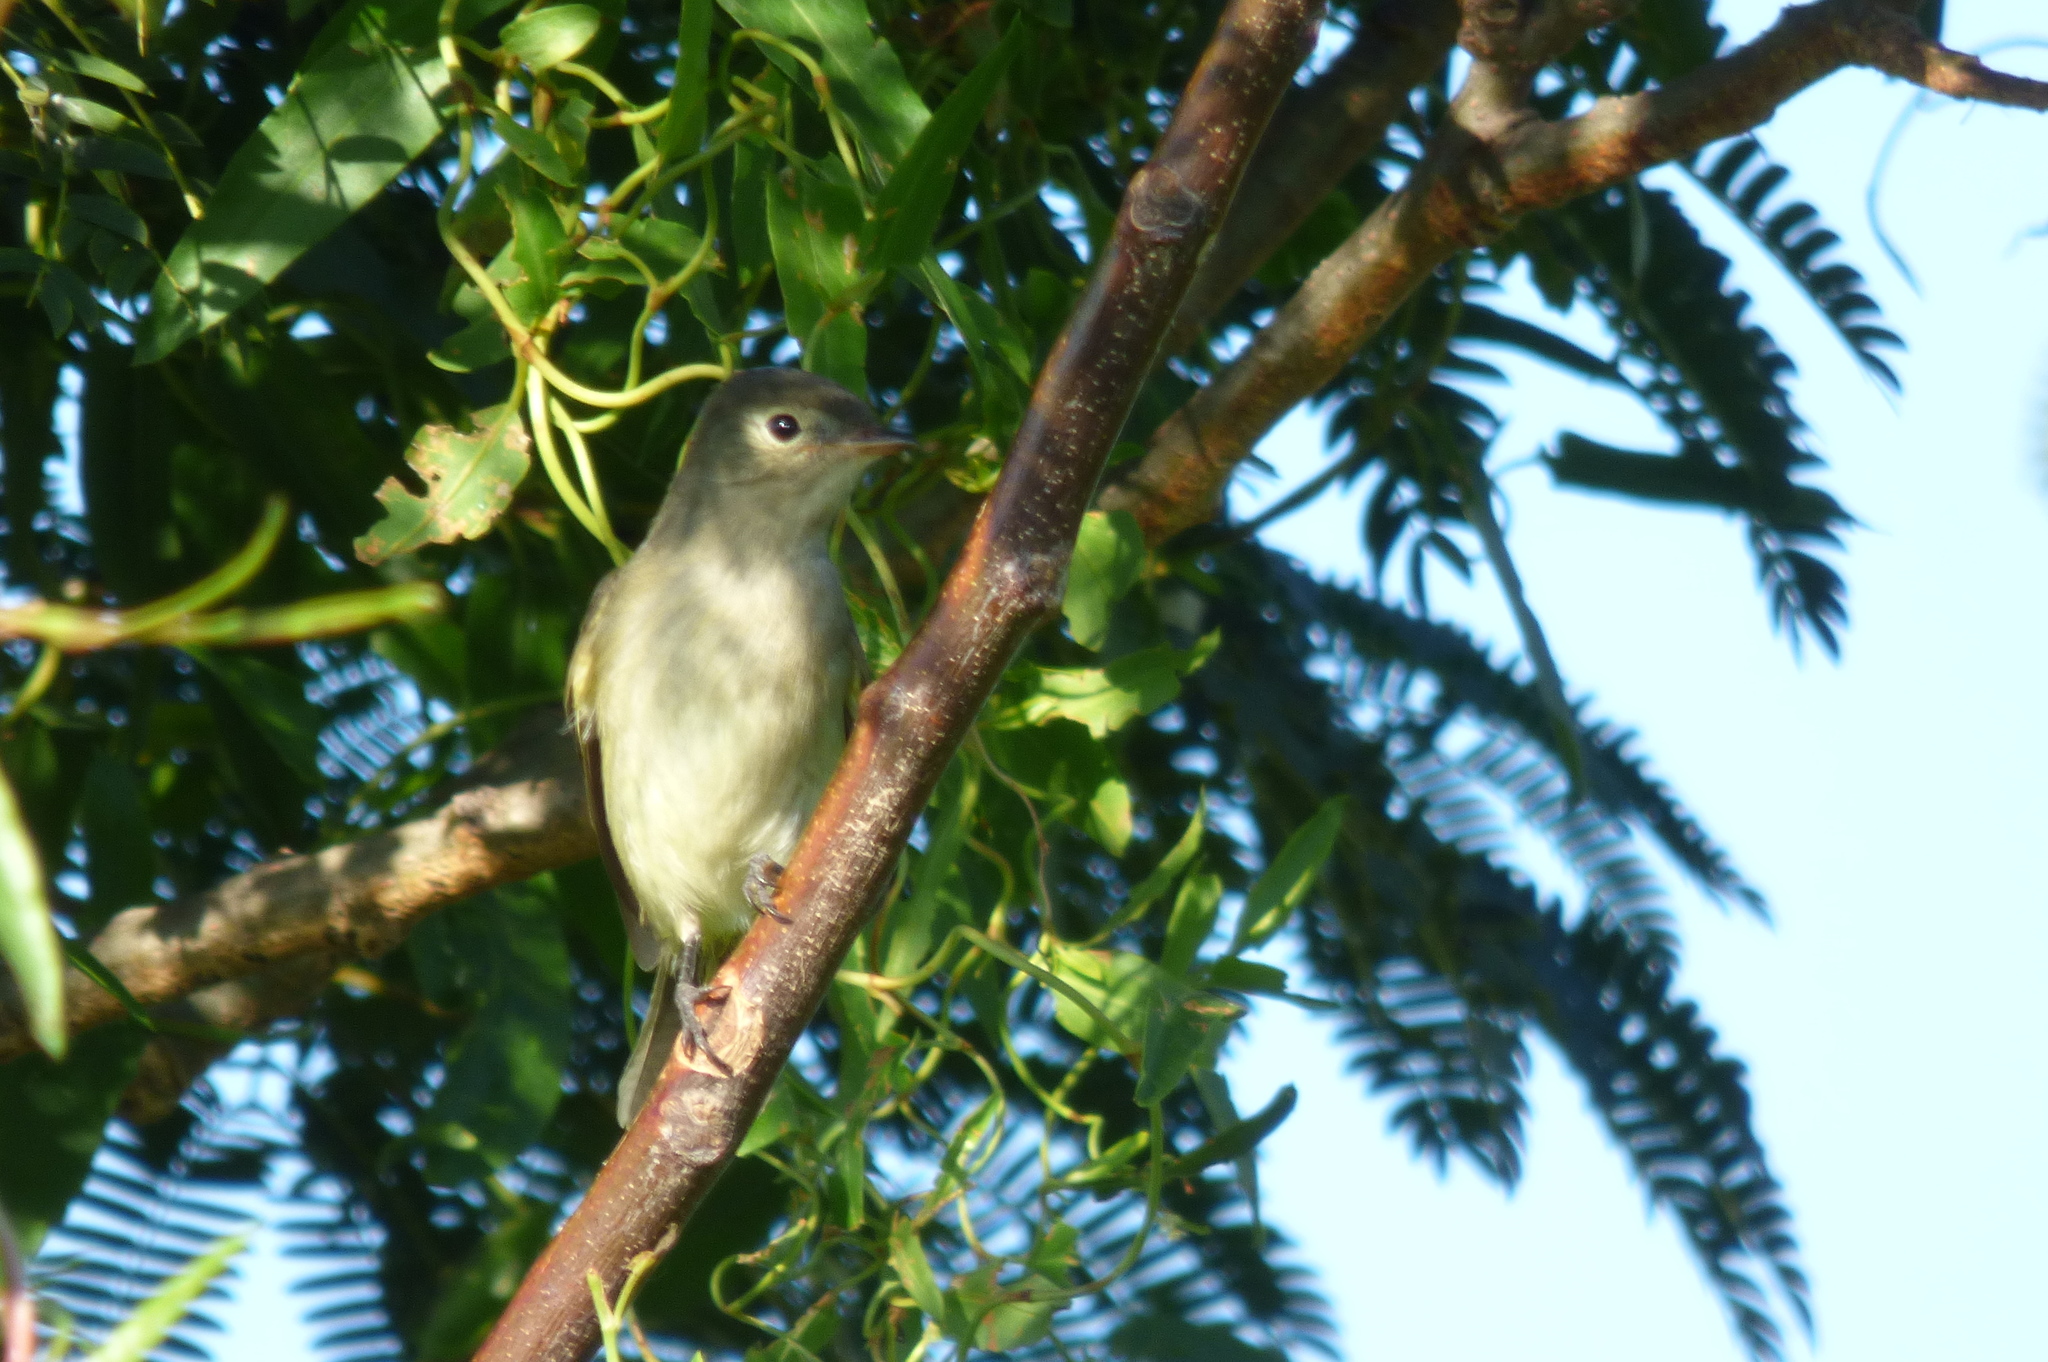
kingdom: Animalia
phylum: Chordata
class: Aves
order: Passeriformes
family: Tyrannidae
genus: Elaenia
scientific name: Elaenia albiceps
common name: White-crested elaenia
